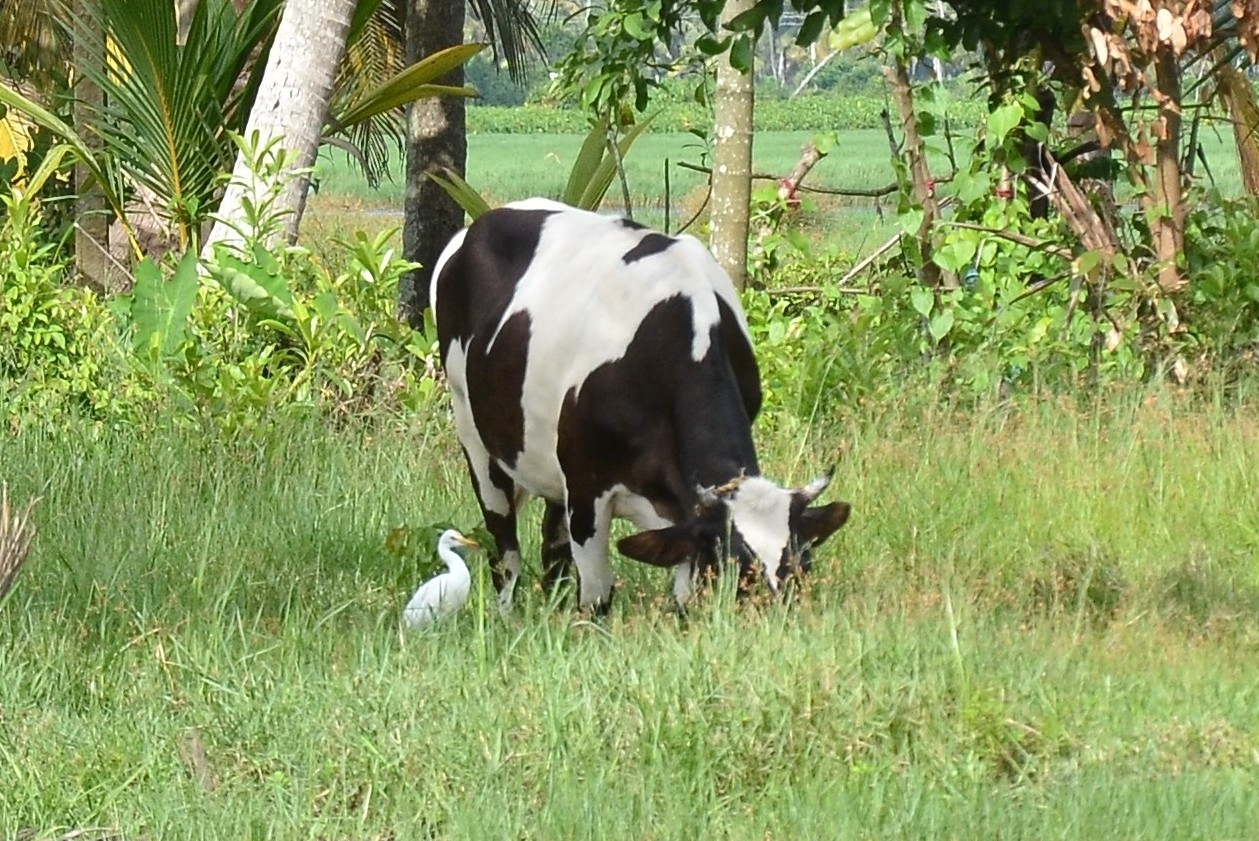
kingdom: Animalia
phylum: Chordata
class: Aves
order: Pelecaniformes
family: Ardeidae
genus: Bubulcus
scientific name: Bubulcus coromandus
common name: Eastern cattle egret
